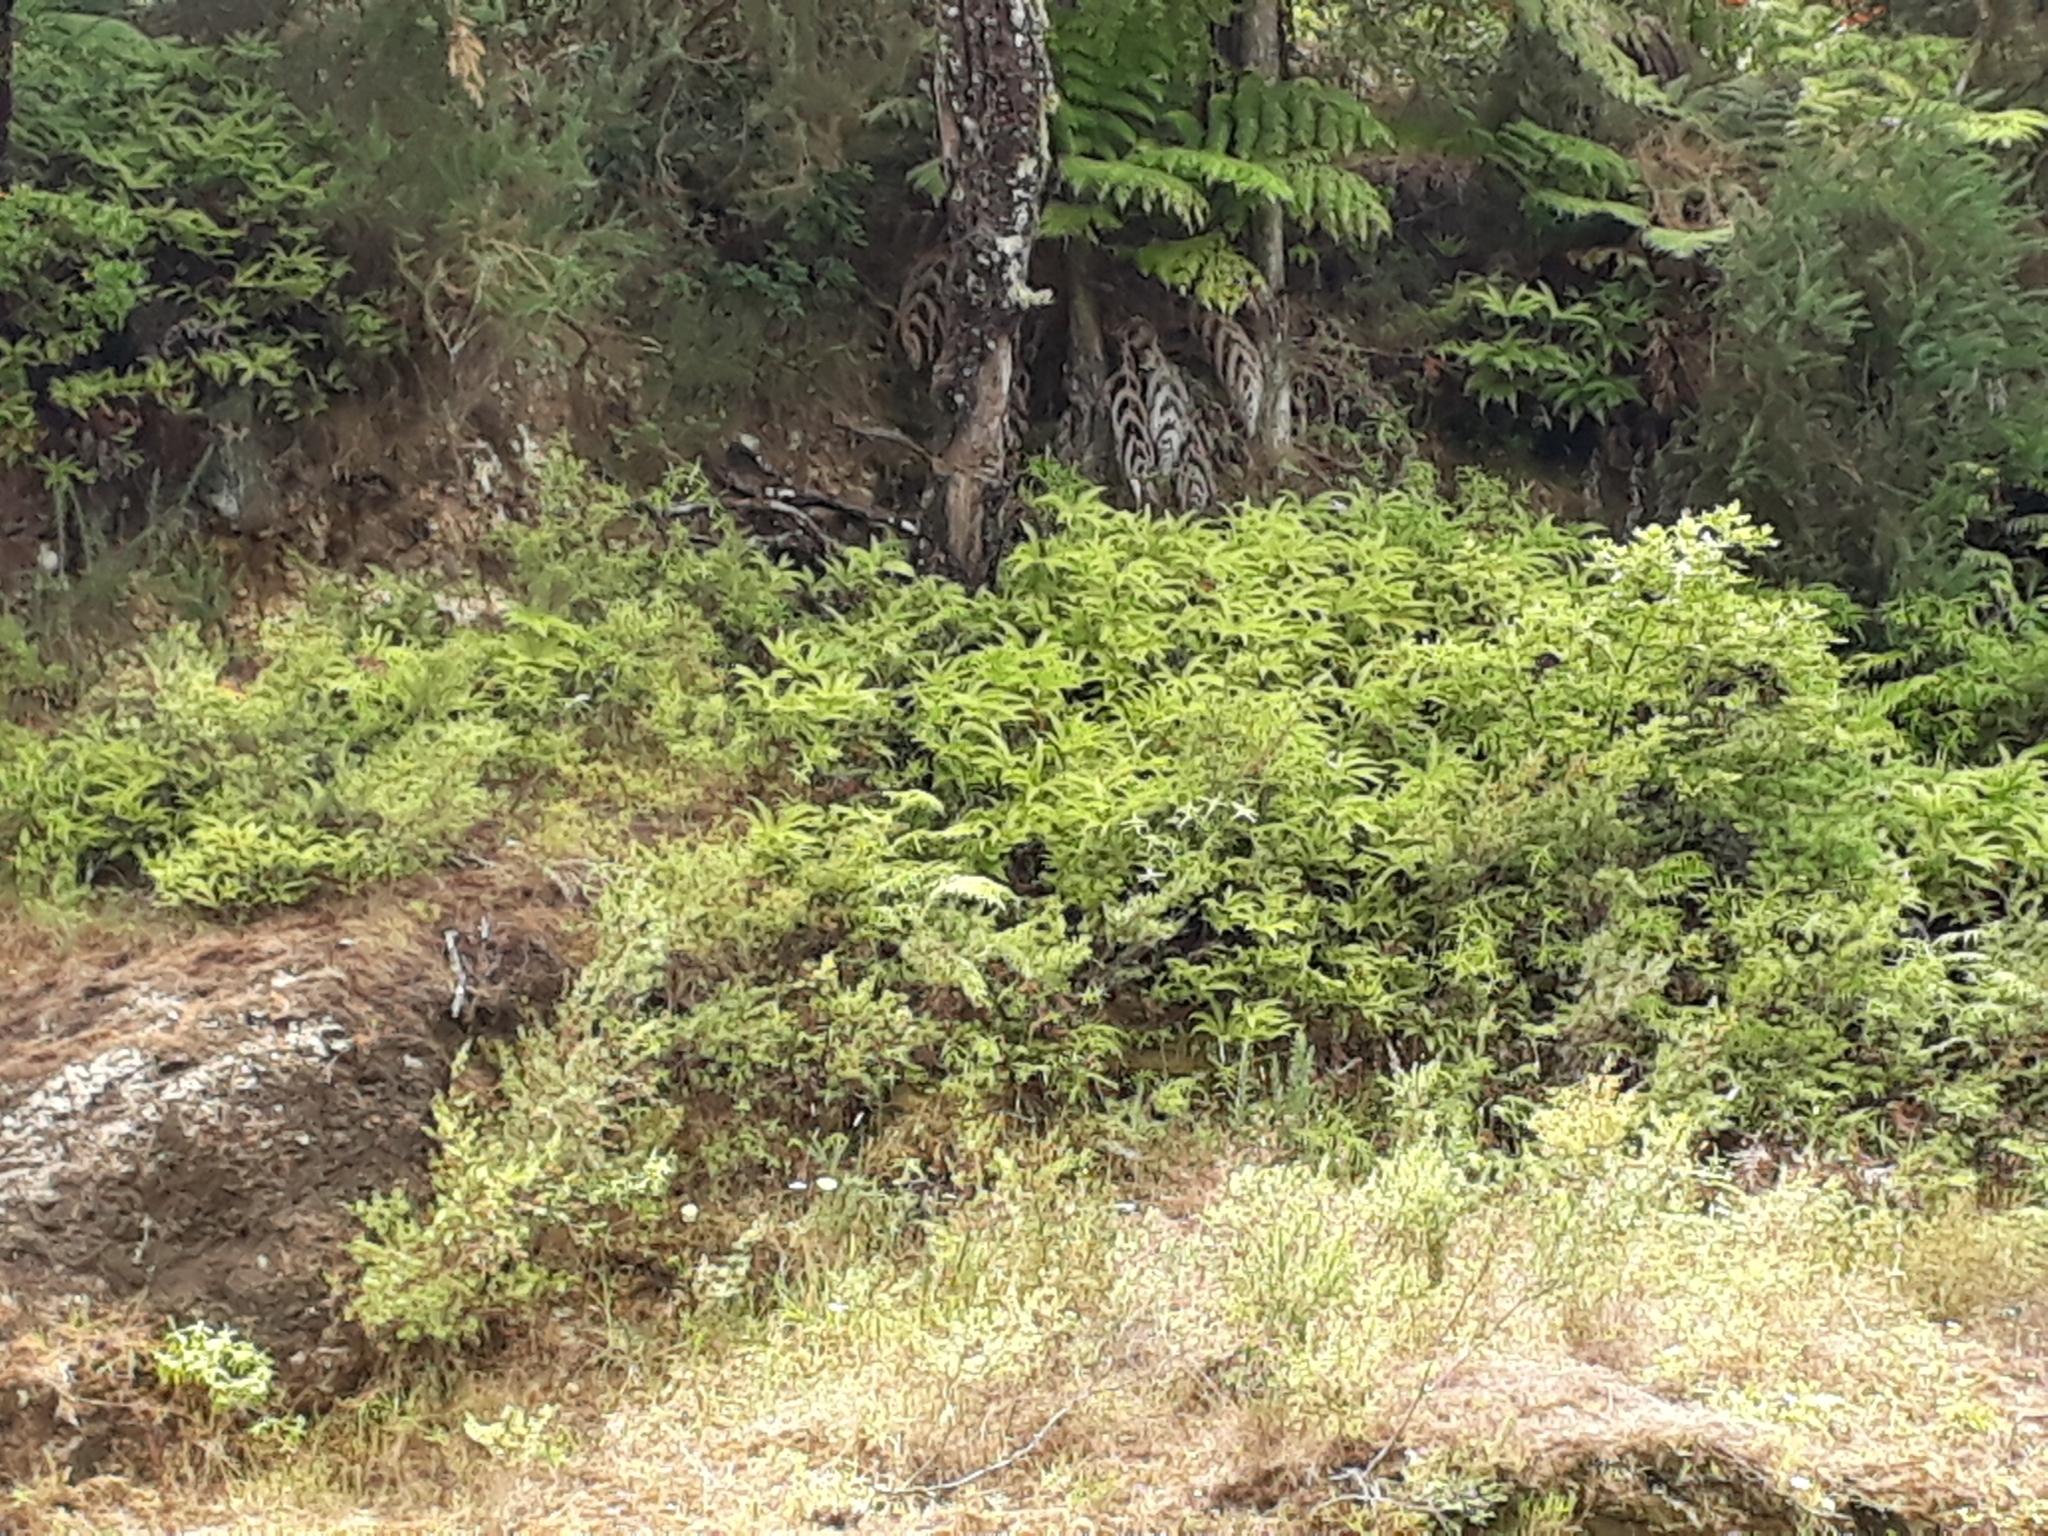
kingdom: Plantae
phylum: Tracheophyta
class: Polypodiopsida
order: Gleicheniales
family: Gleicheniaceae
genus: Sticherus
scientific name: Sticherus flabellatus
